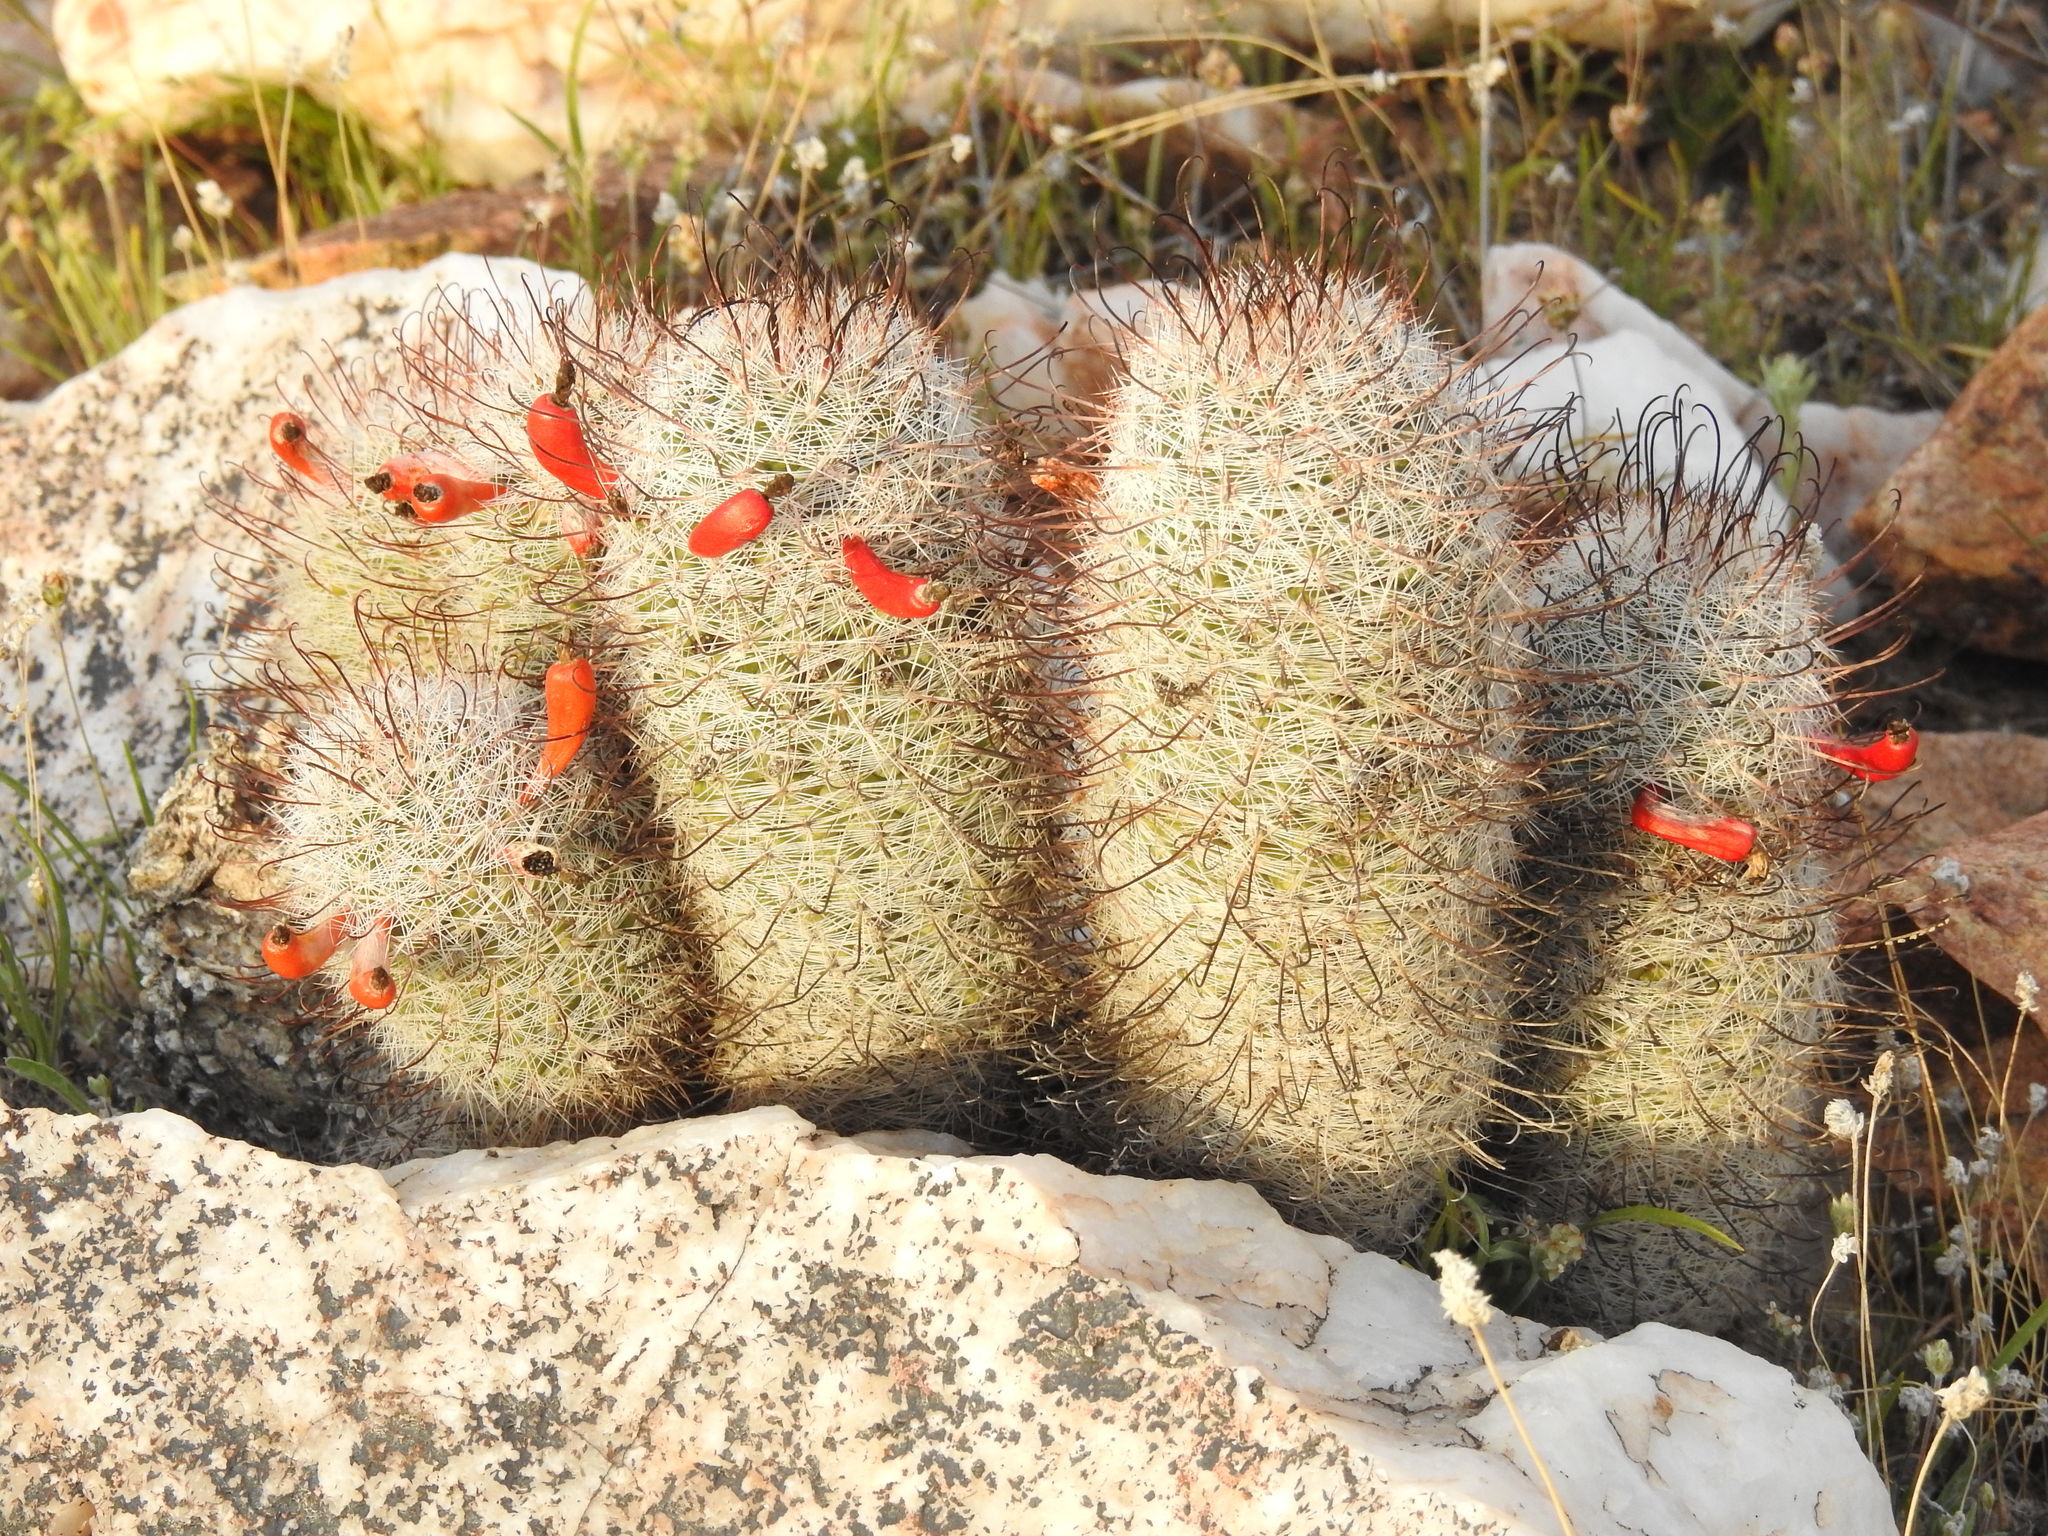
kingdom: Plantae
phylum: Tracheophyta
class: Magnoliopsida
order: Caryophyllales
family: Cactaceae
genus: Cochemiea
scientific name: Cochemiea grahamii
